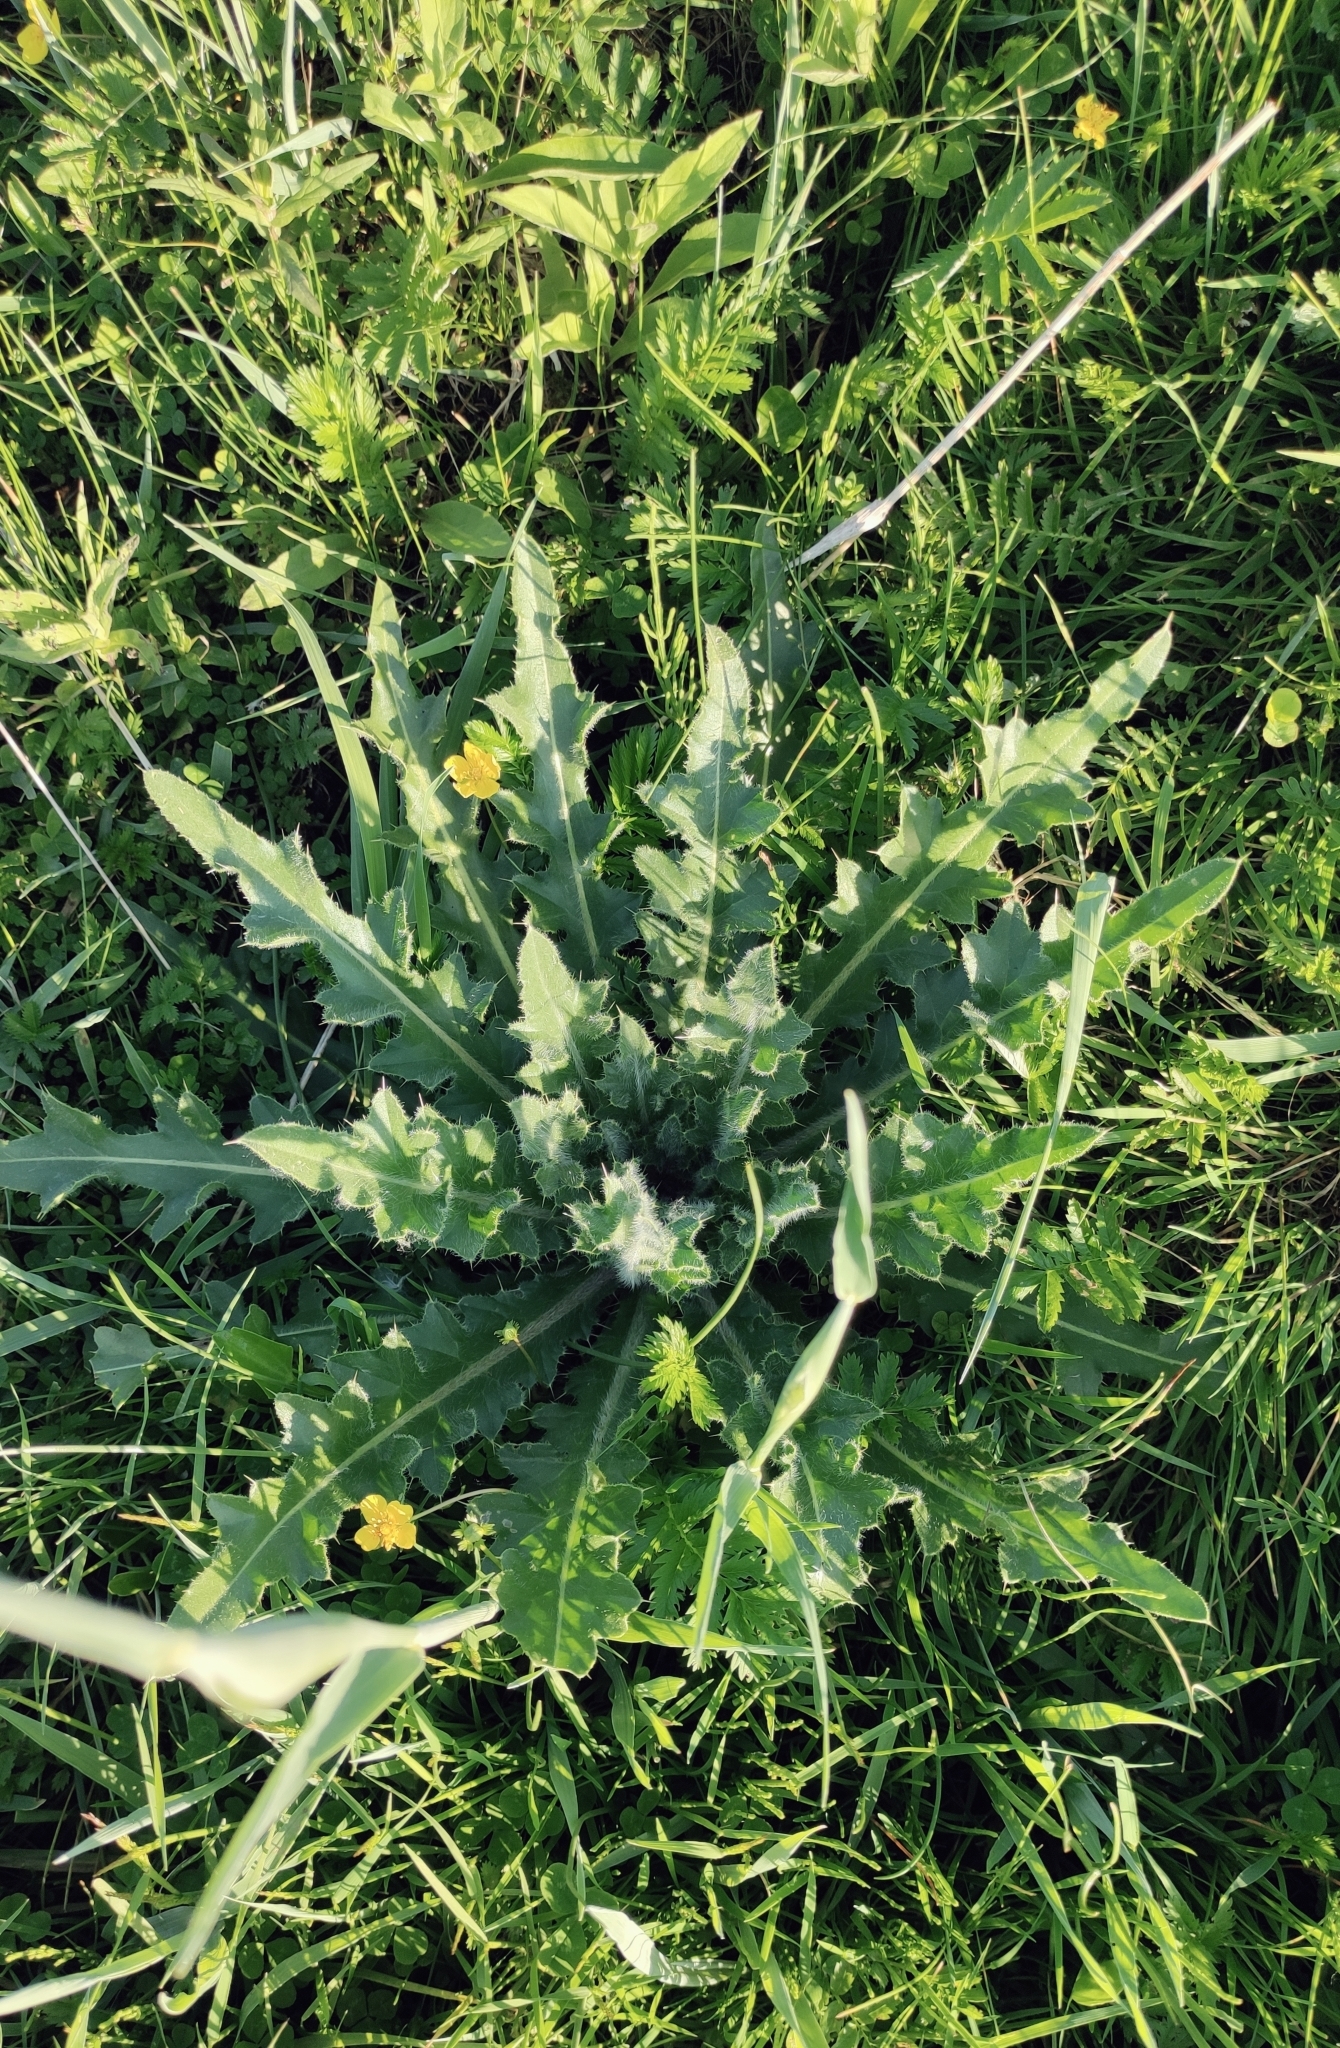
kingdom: Plantae
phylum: Tracheophyta
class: Magnoliopsida
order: Asterales
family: Asteraceae
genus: Cirsium
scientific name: Cirsium esculentum
